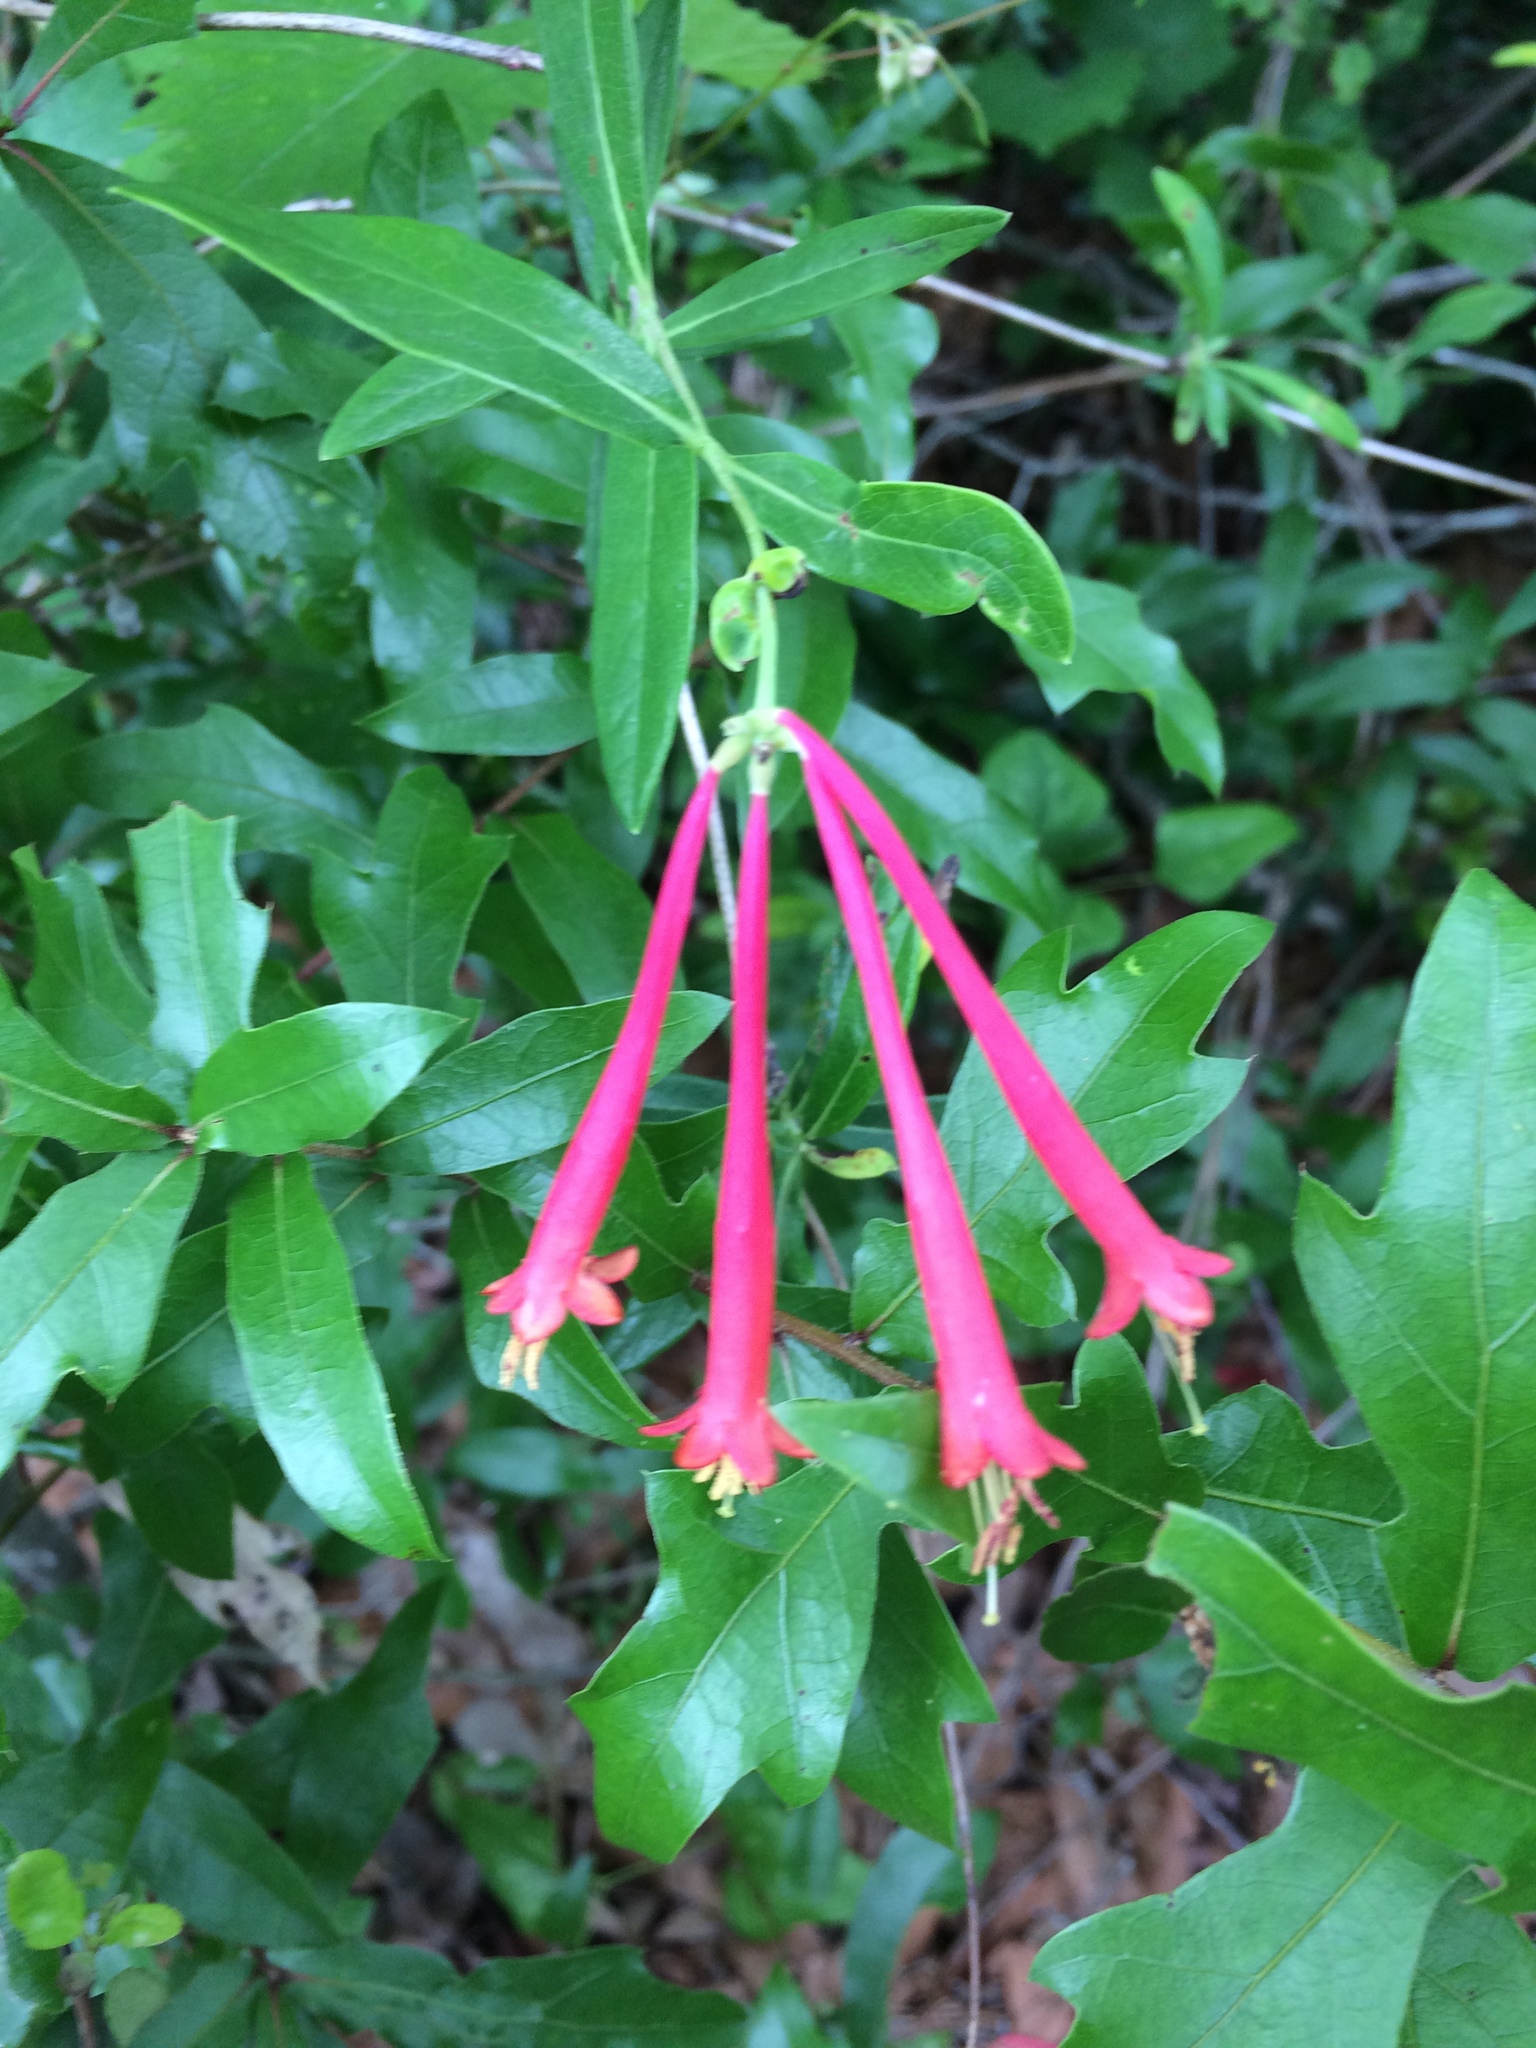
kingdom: Plantae
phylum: Tracheophyta
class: Magnoliopsida
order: Dipsacales
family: Caprifoliaceae
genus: Lonicera
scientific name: Lonicera sempervirens
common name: Coral honeysuckle
